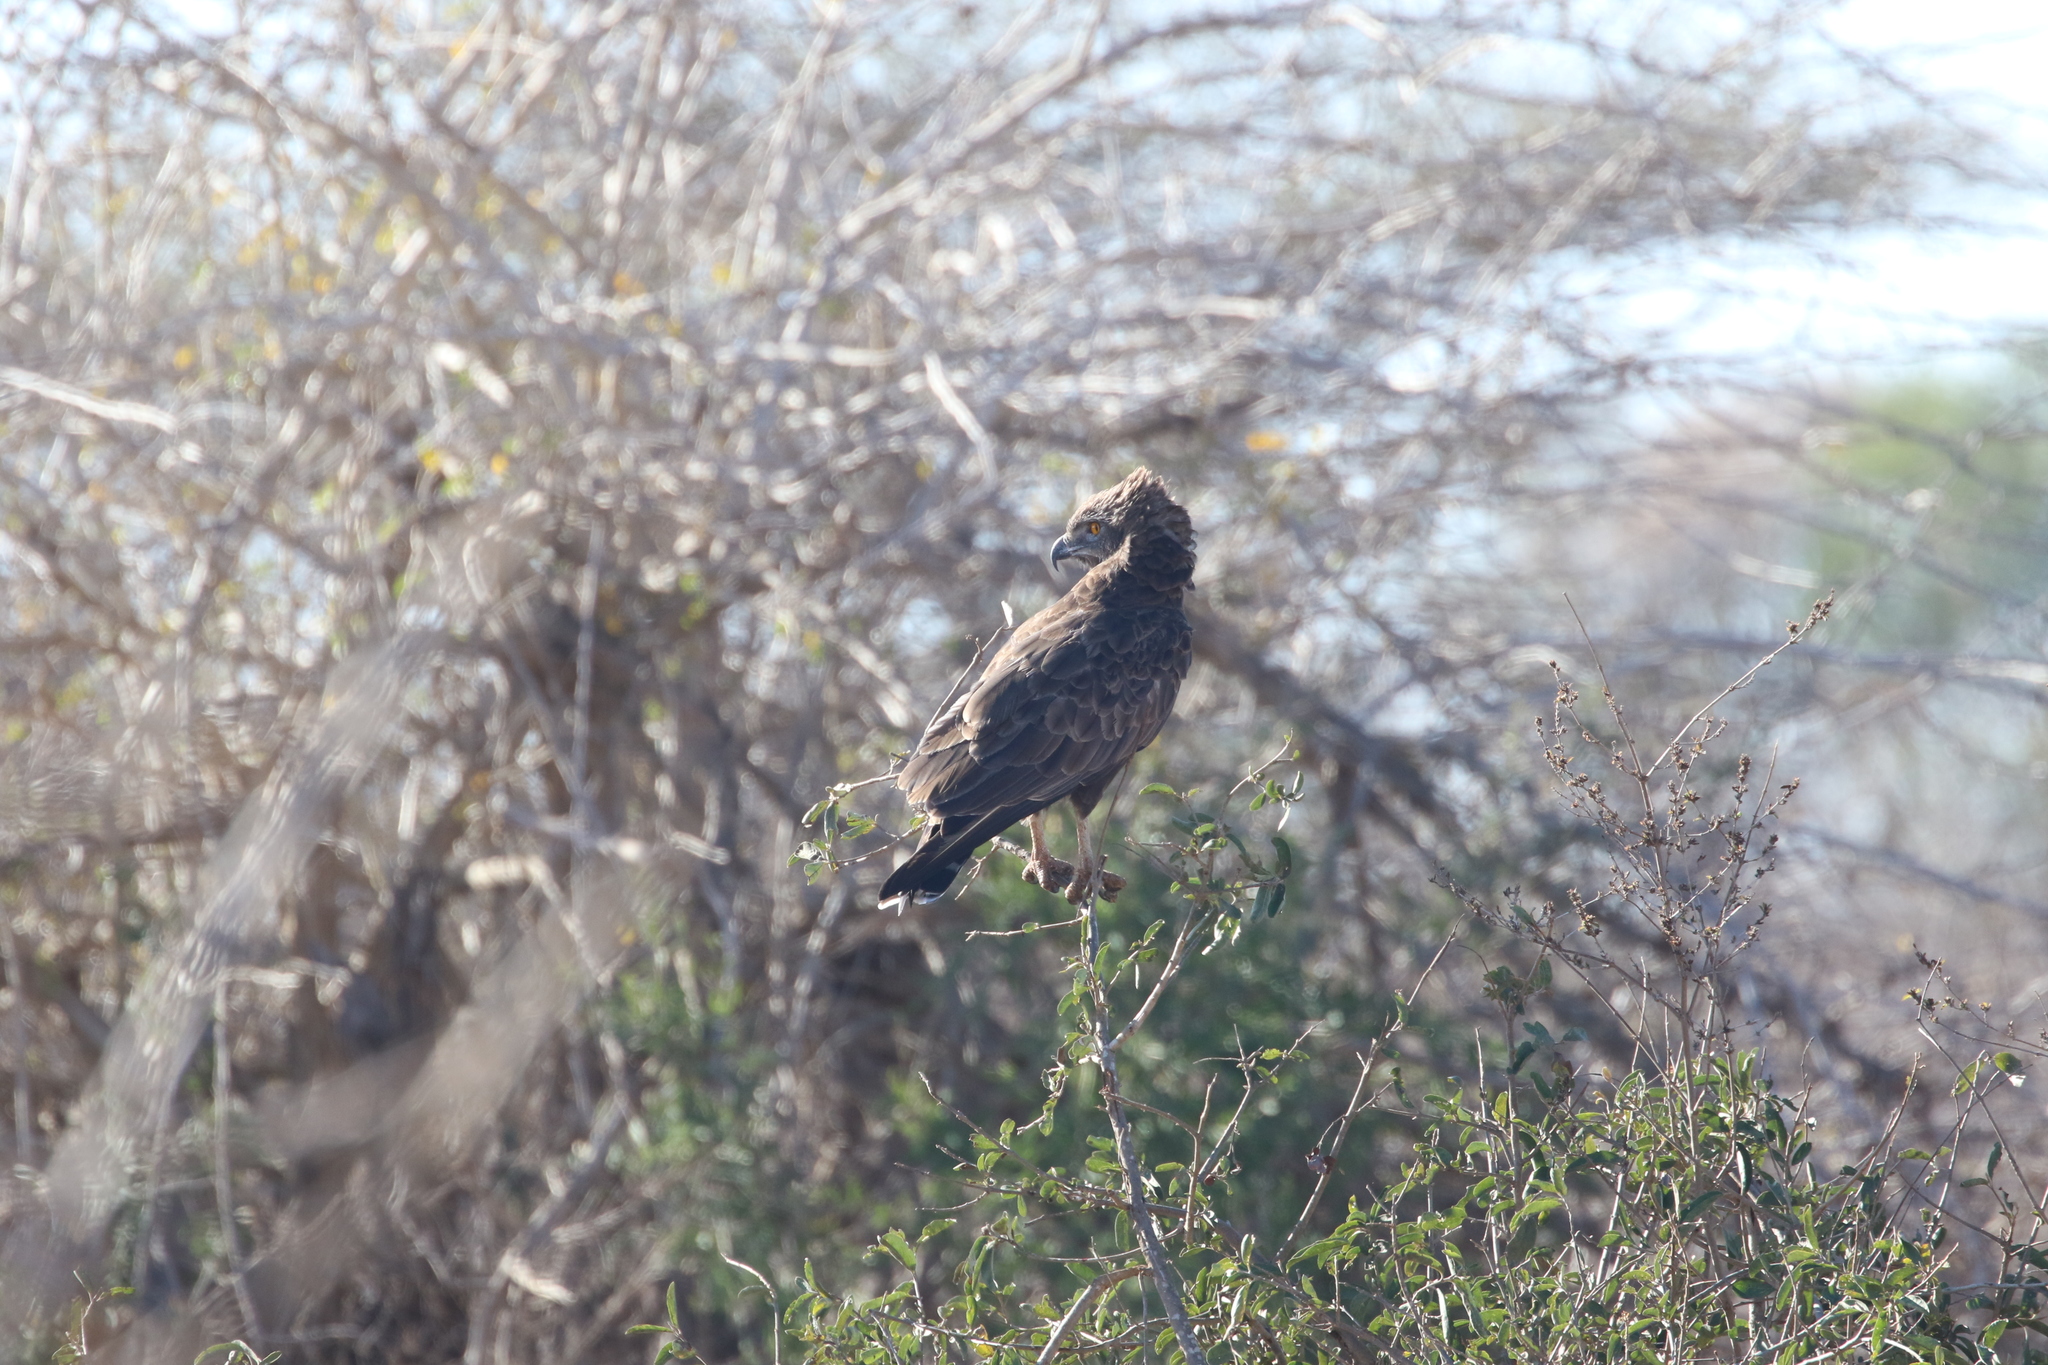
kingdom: Animalia
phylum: Chordata
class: Aves
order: Accipitriformes
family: Accipitridae
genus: Circaetus
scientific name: Circaetus cinereus
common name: Brown snake eagle
